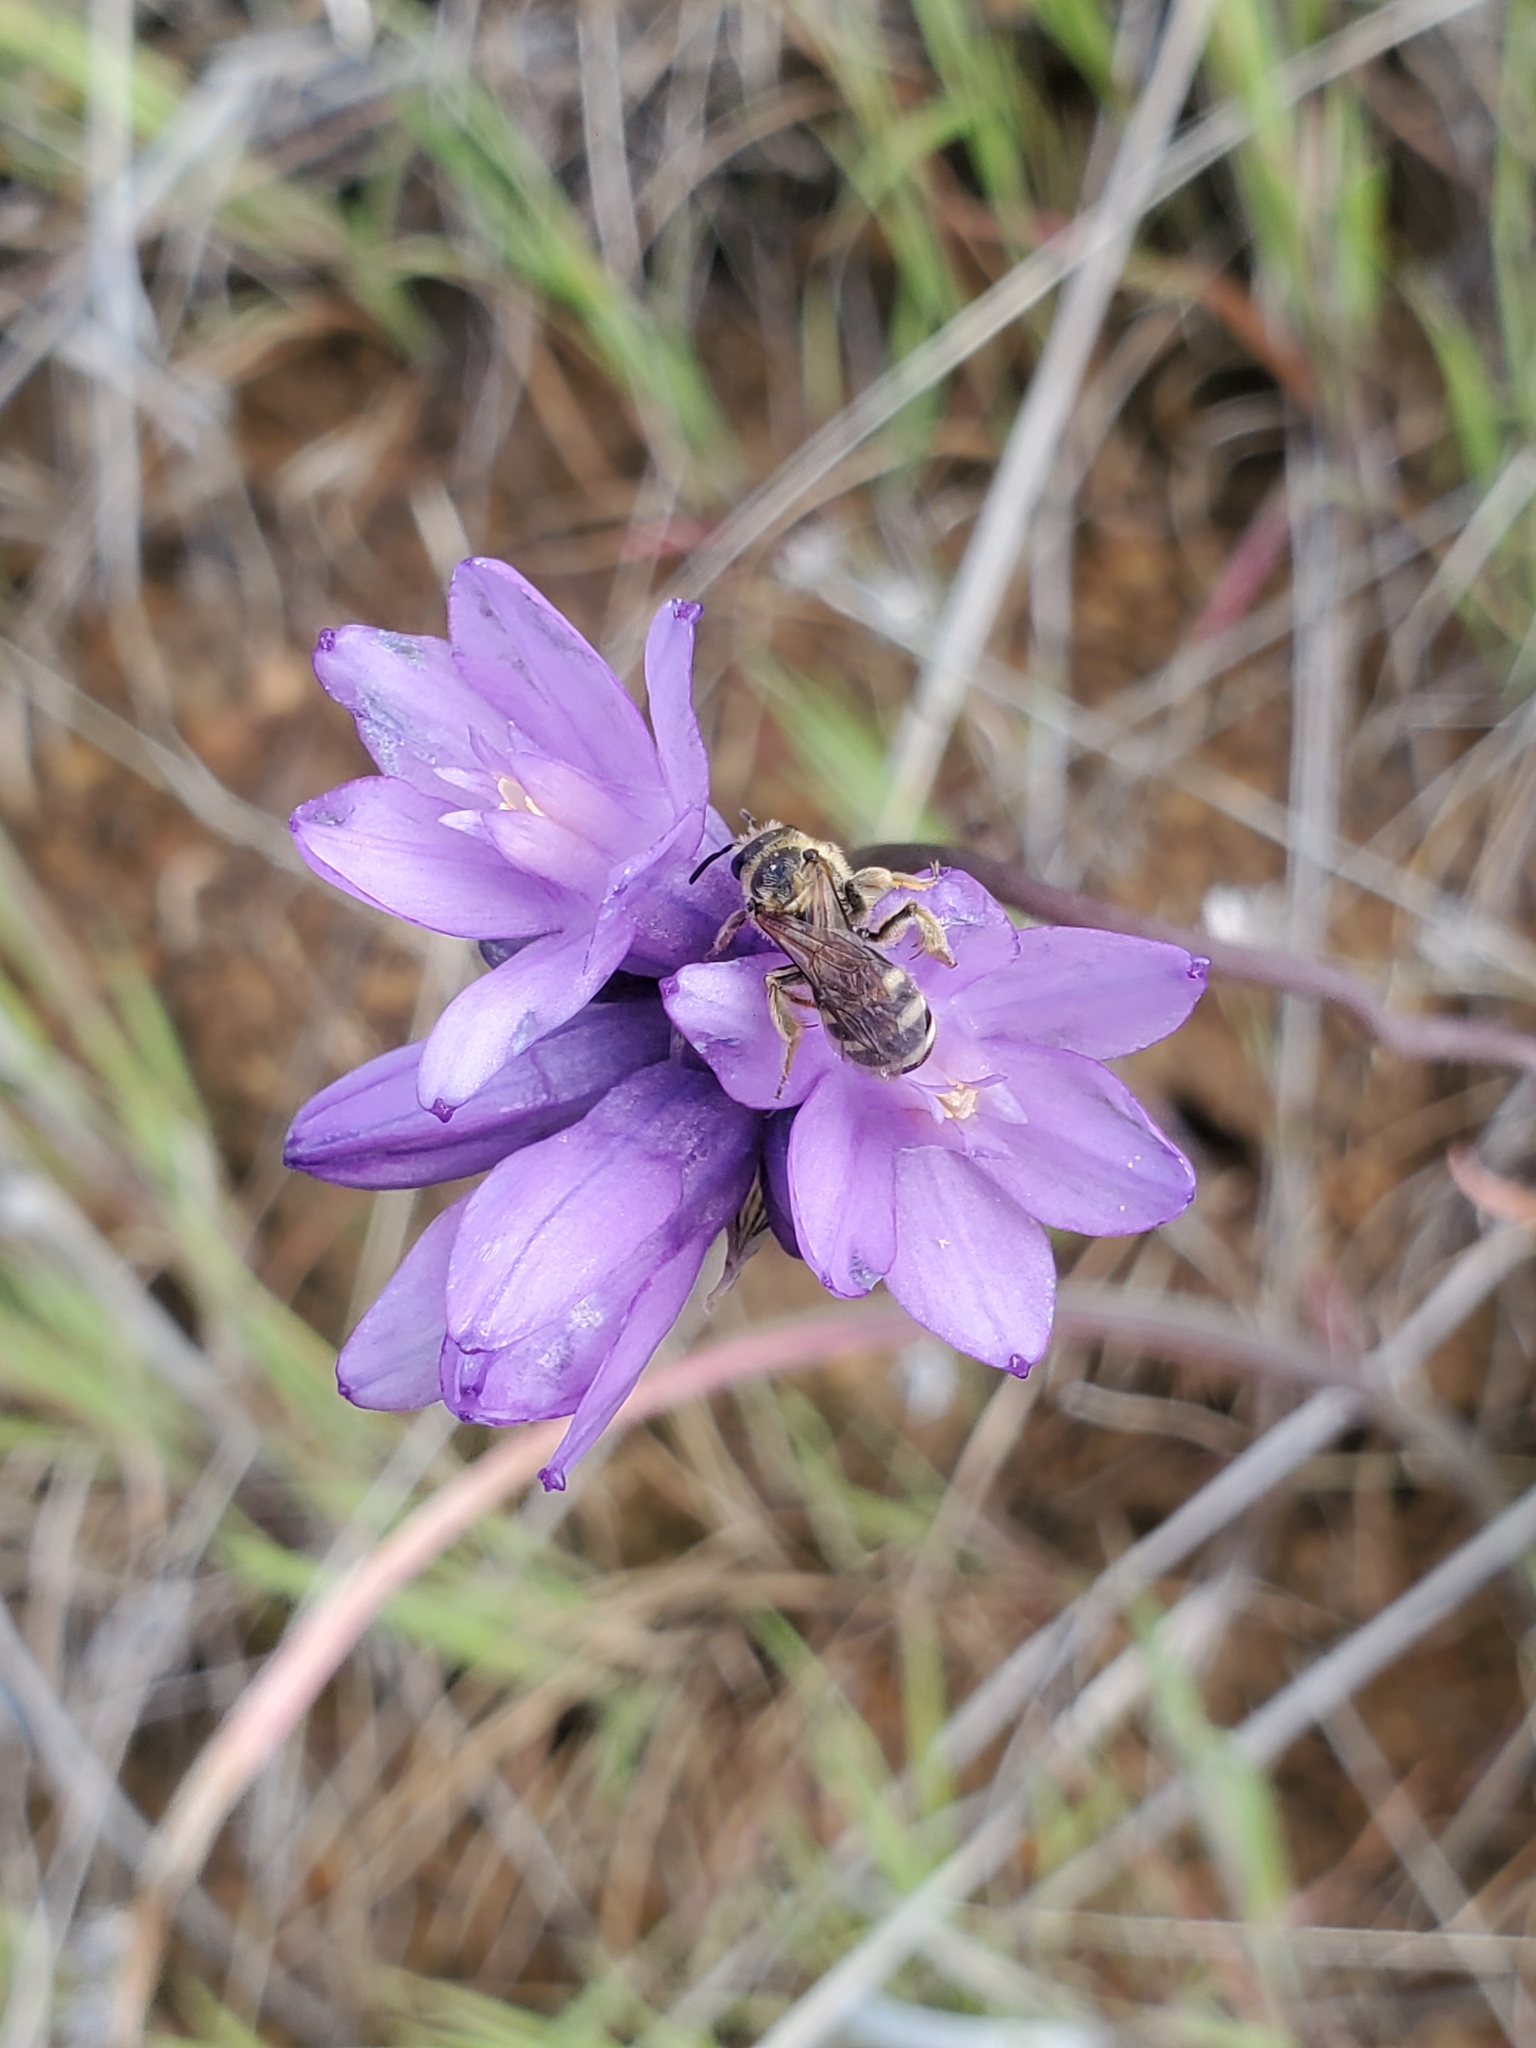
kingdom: Plantae
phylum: Tracheophyta
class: Liliopsida
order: Asparagales
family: Asparagaceae
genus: Dipterostemon
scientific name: Dipterostemon capitatus
